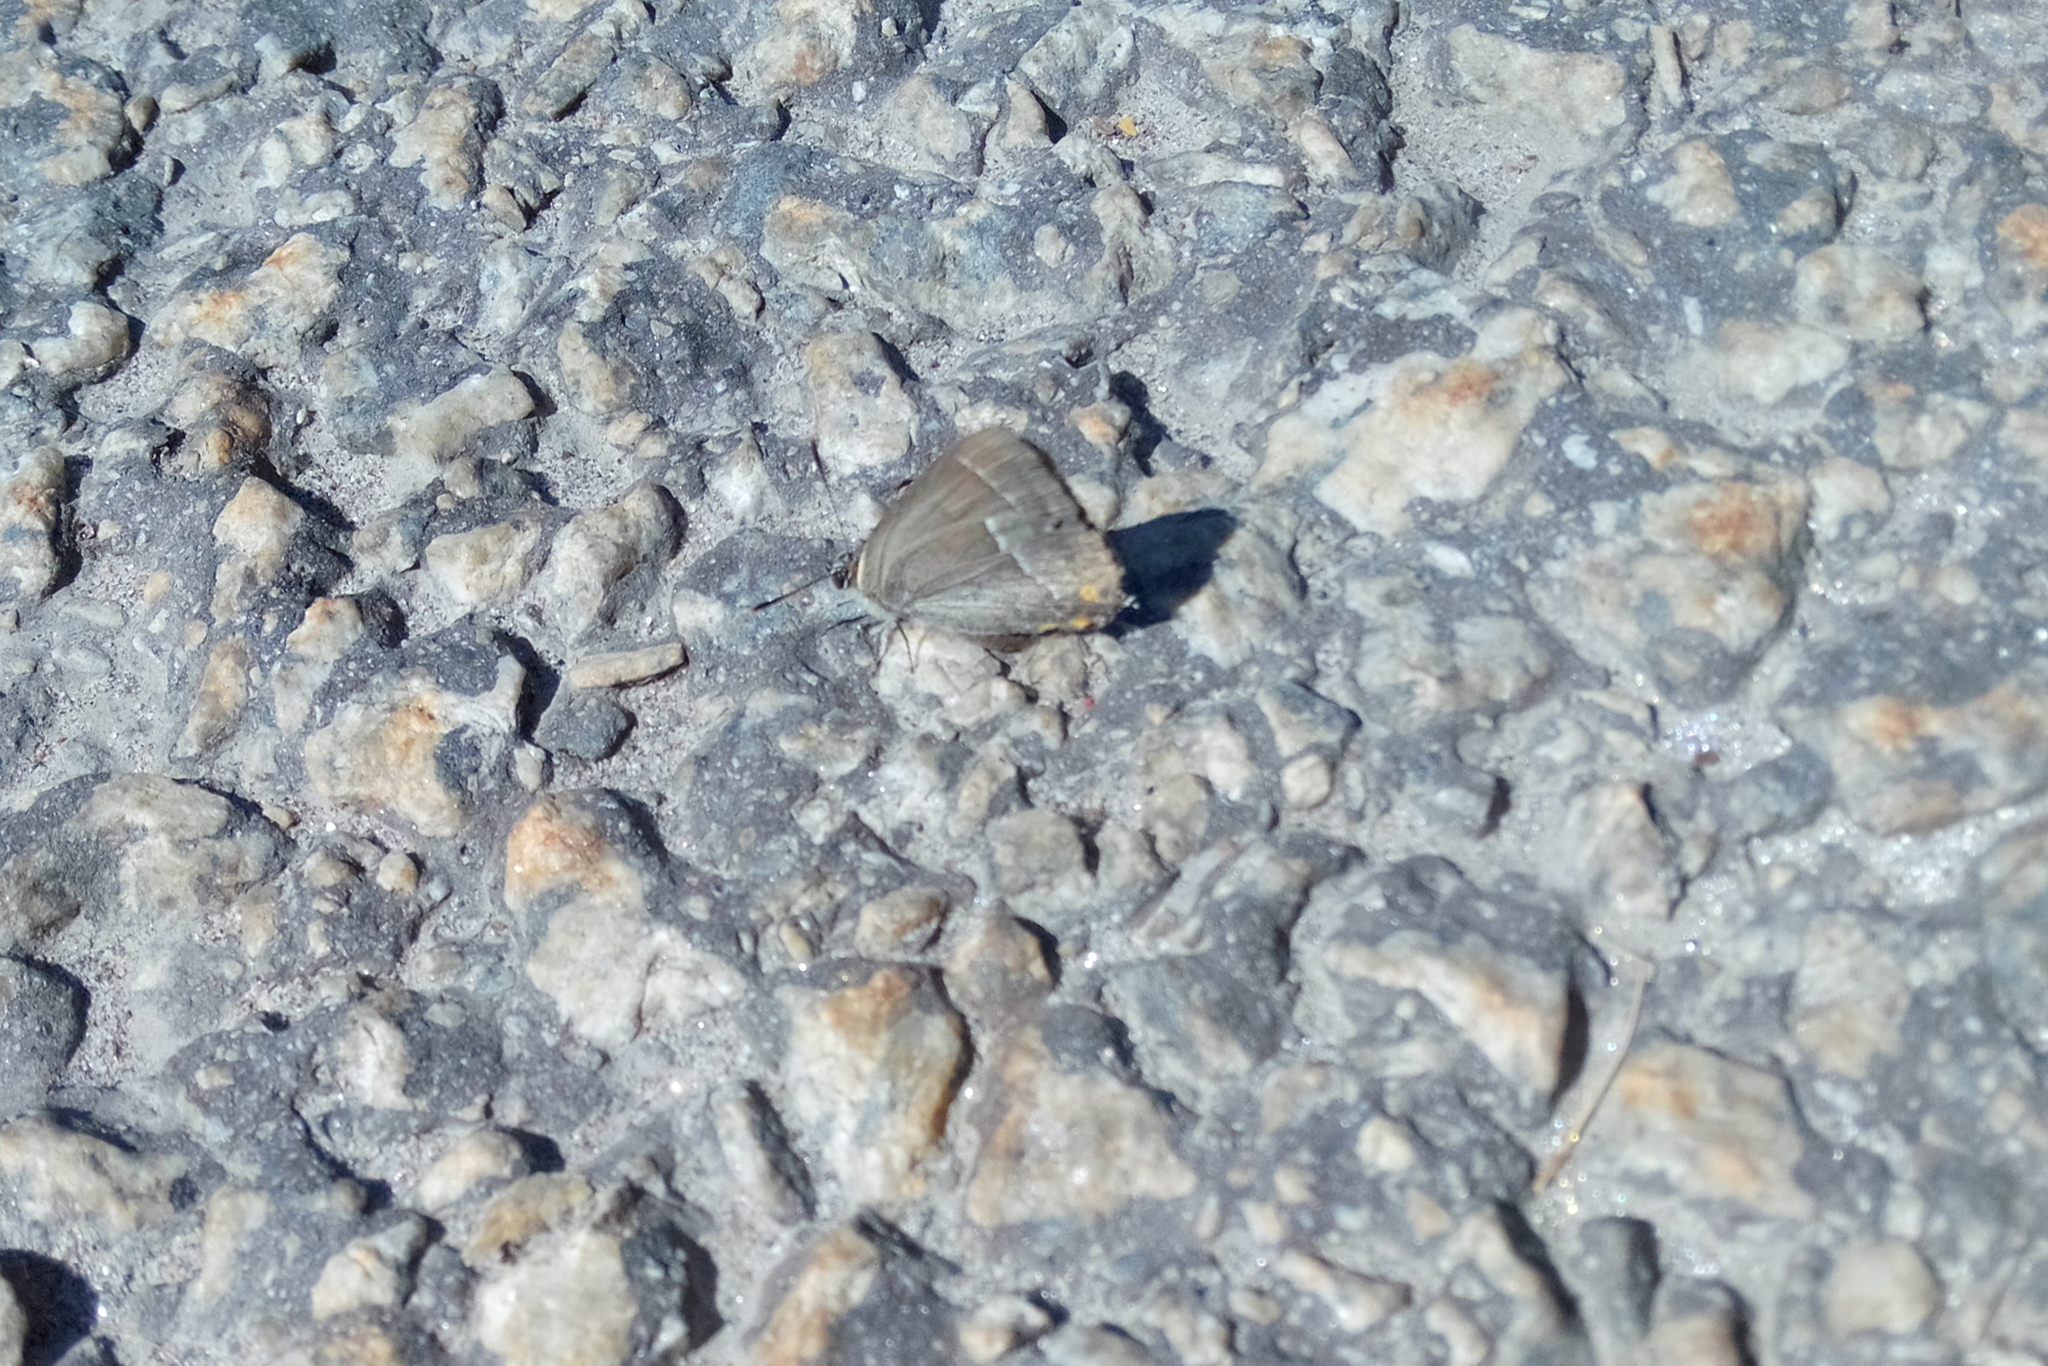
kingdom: Animalia
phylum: Arthropoda
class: Insecta
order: Lepidoptera
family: Lycaenidae
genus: Quercusia
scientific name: Quercusia quercus
